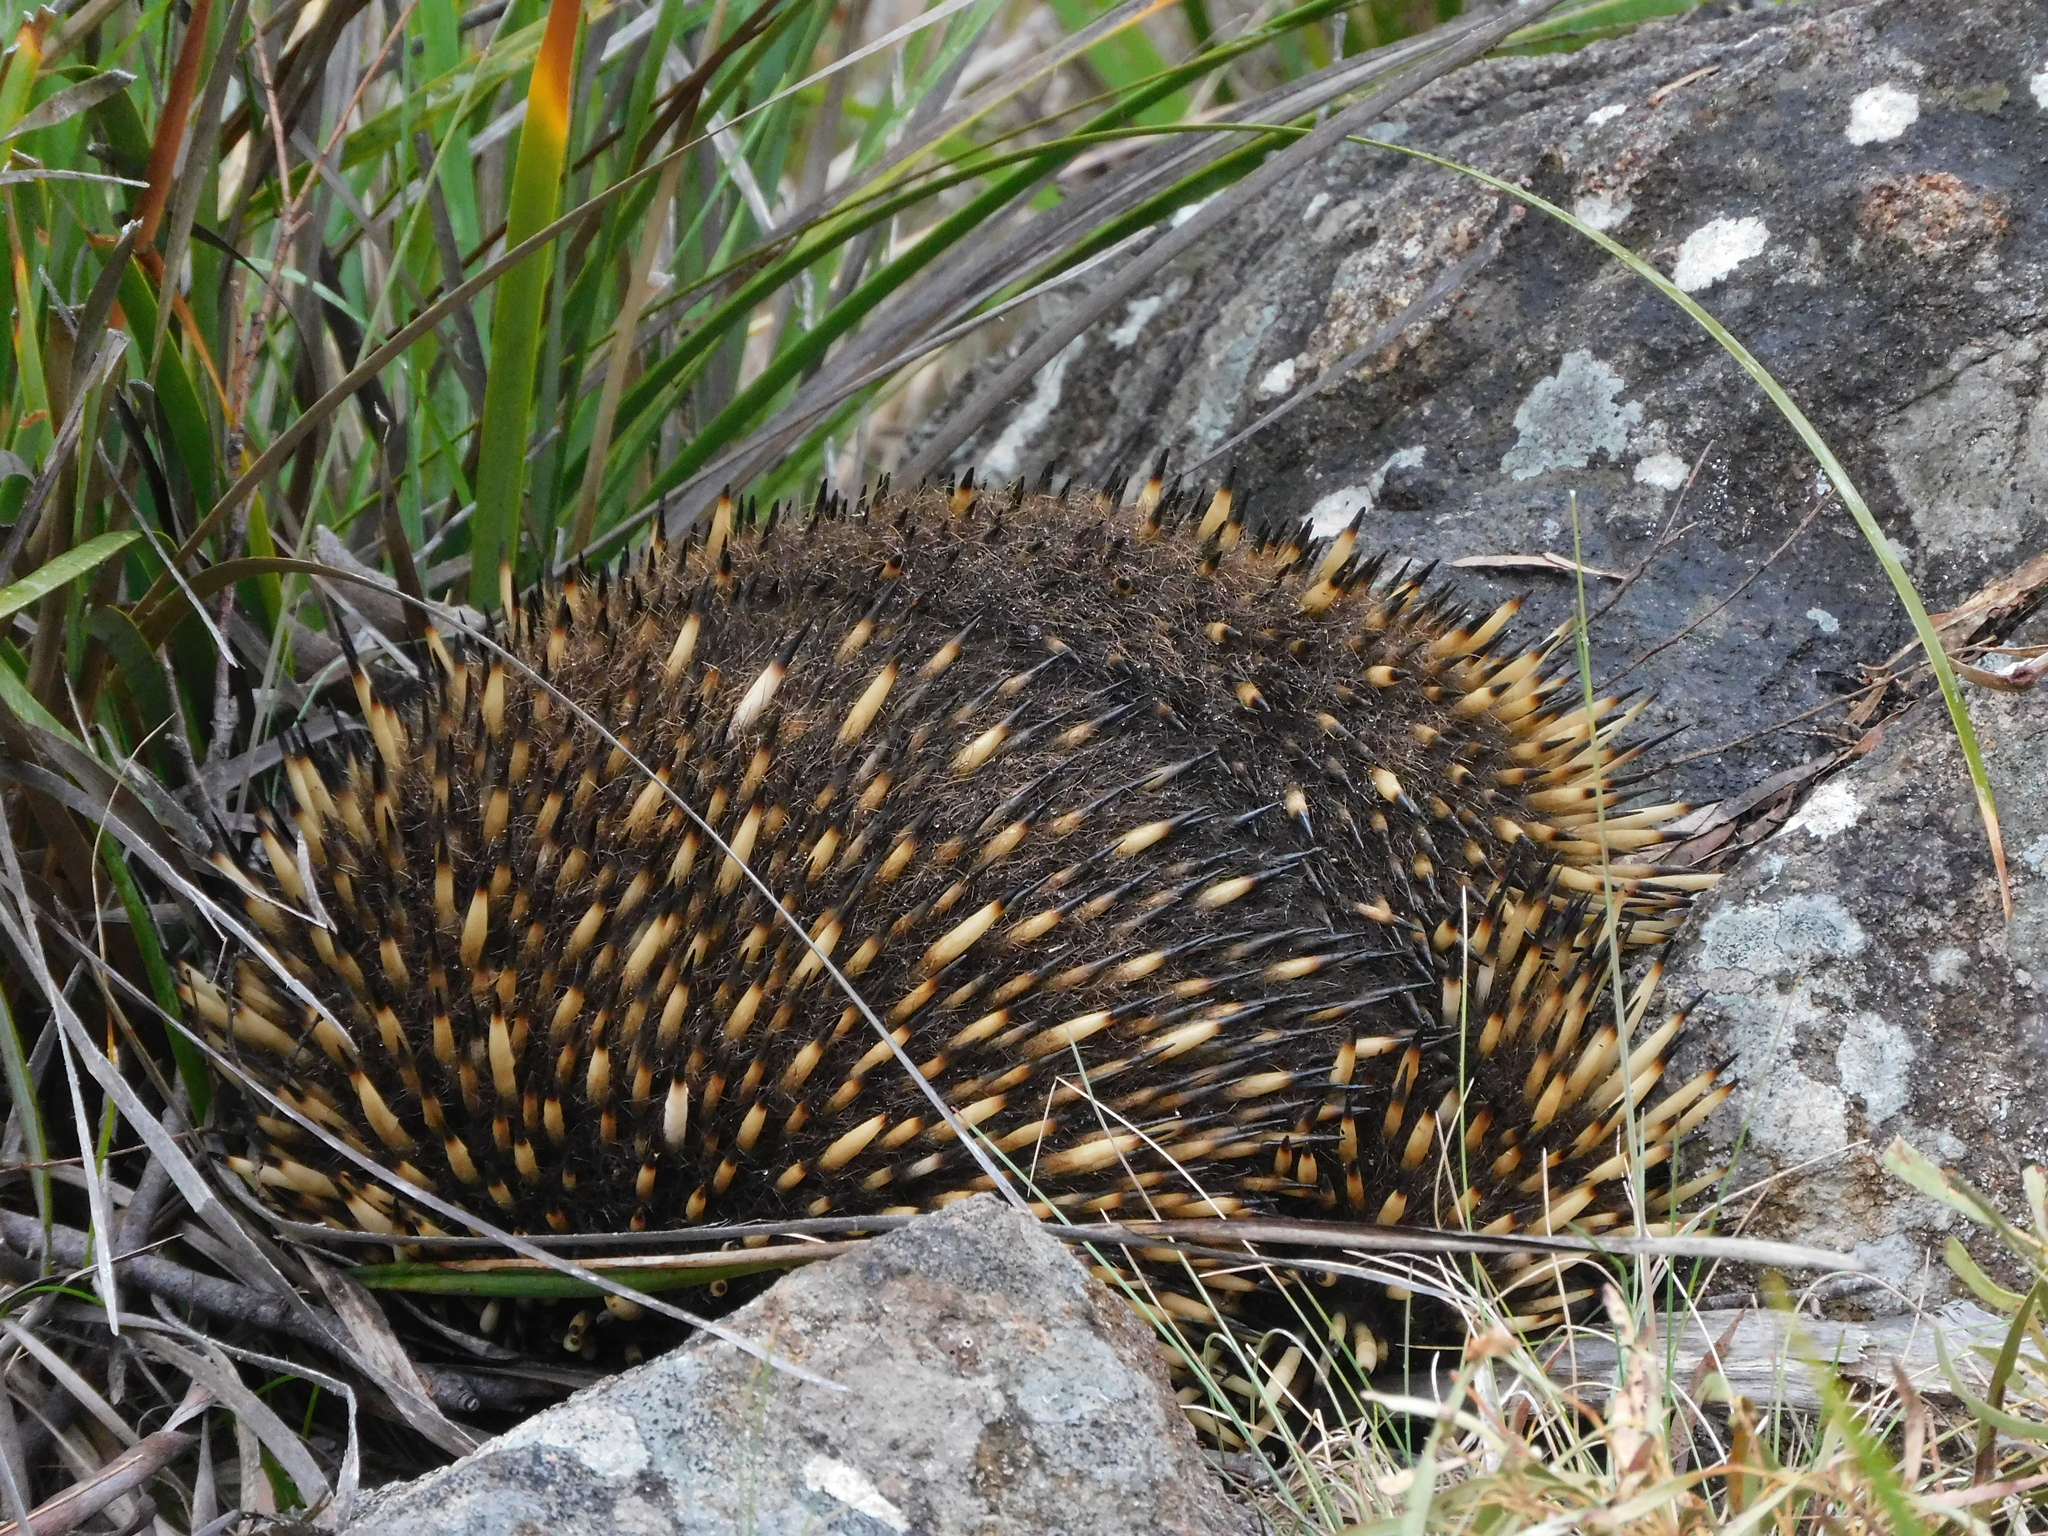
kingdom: Animalia
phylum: Chordata
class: Mammalia
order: Monotremata
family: Tachyglossidae
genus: Tachyglossus
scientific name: Tachyglossus aculeatus
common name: Short-beaked echidna
